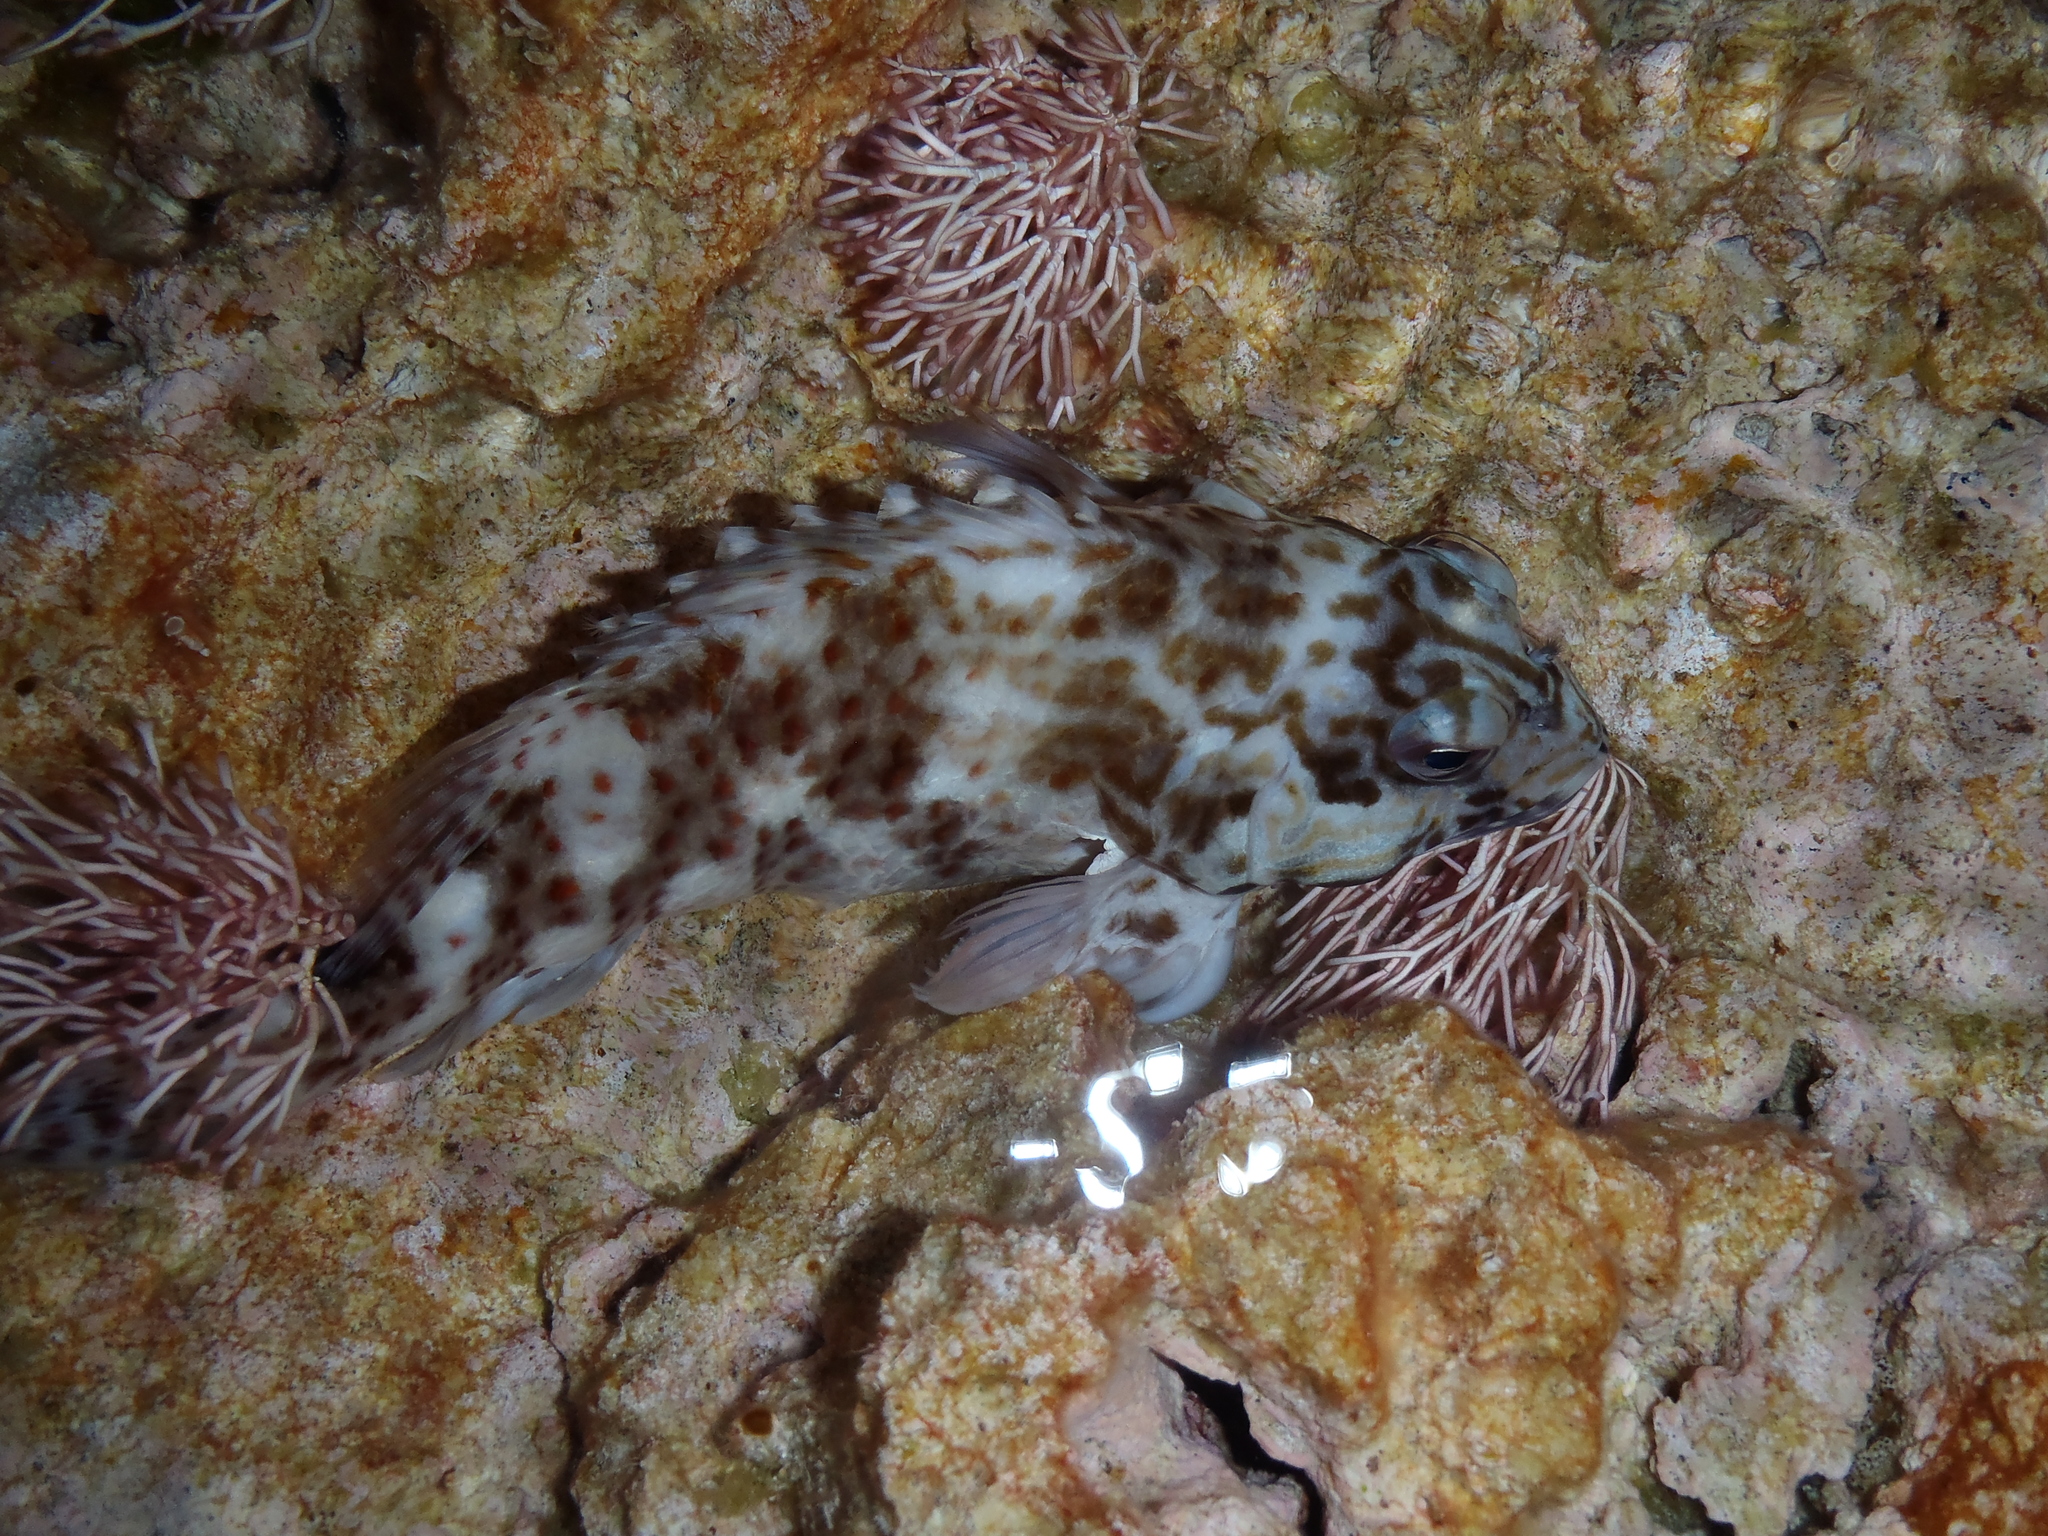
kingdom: Animalia
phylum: Chordata
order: Perciformes
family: Cirrhitidae
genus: Cirrhitus
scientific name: Cirrhitus pinnulatus
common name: Stocky hawkfish
